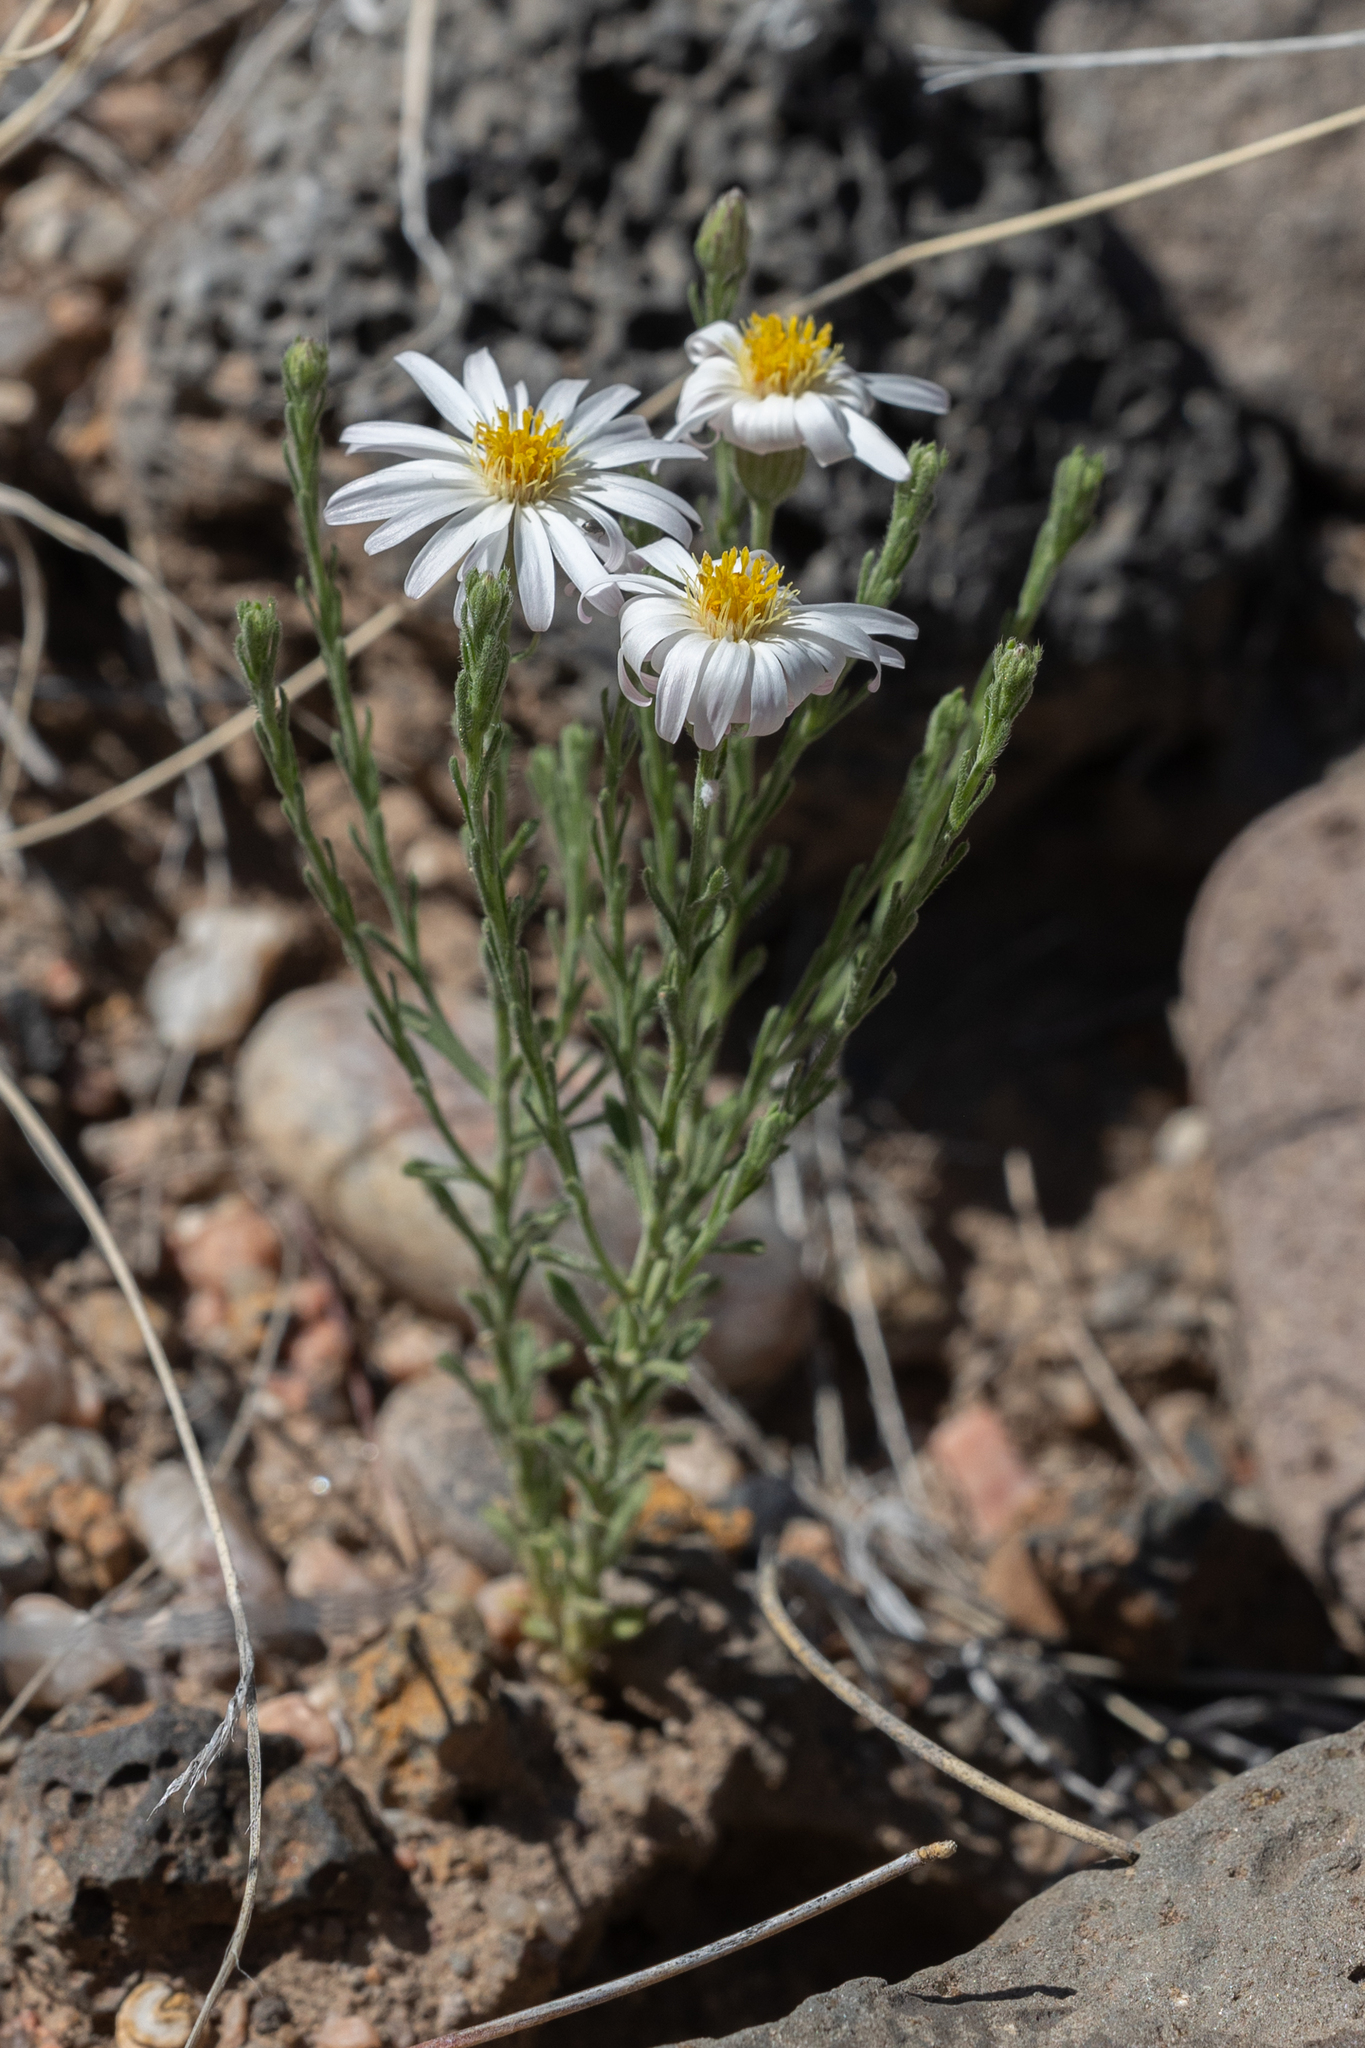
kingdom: Plantae
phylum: Tracheophyta
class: Magnoliopsida
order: Asterales
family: Asteraceae
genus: Chaetopappa
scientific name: Chaetopappa ericoides
